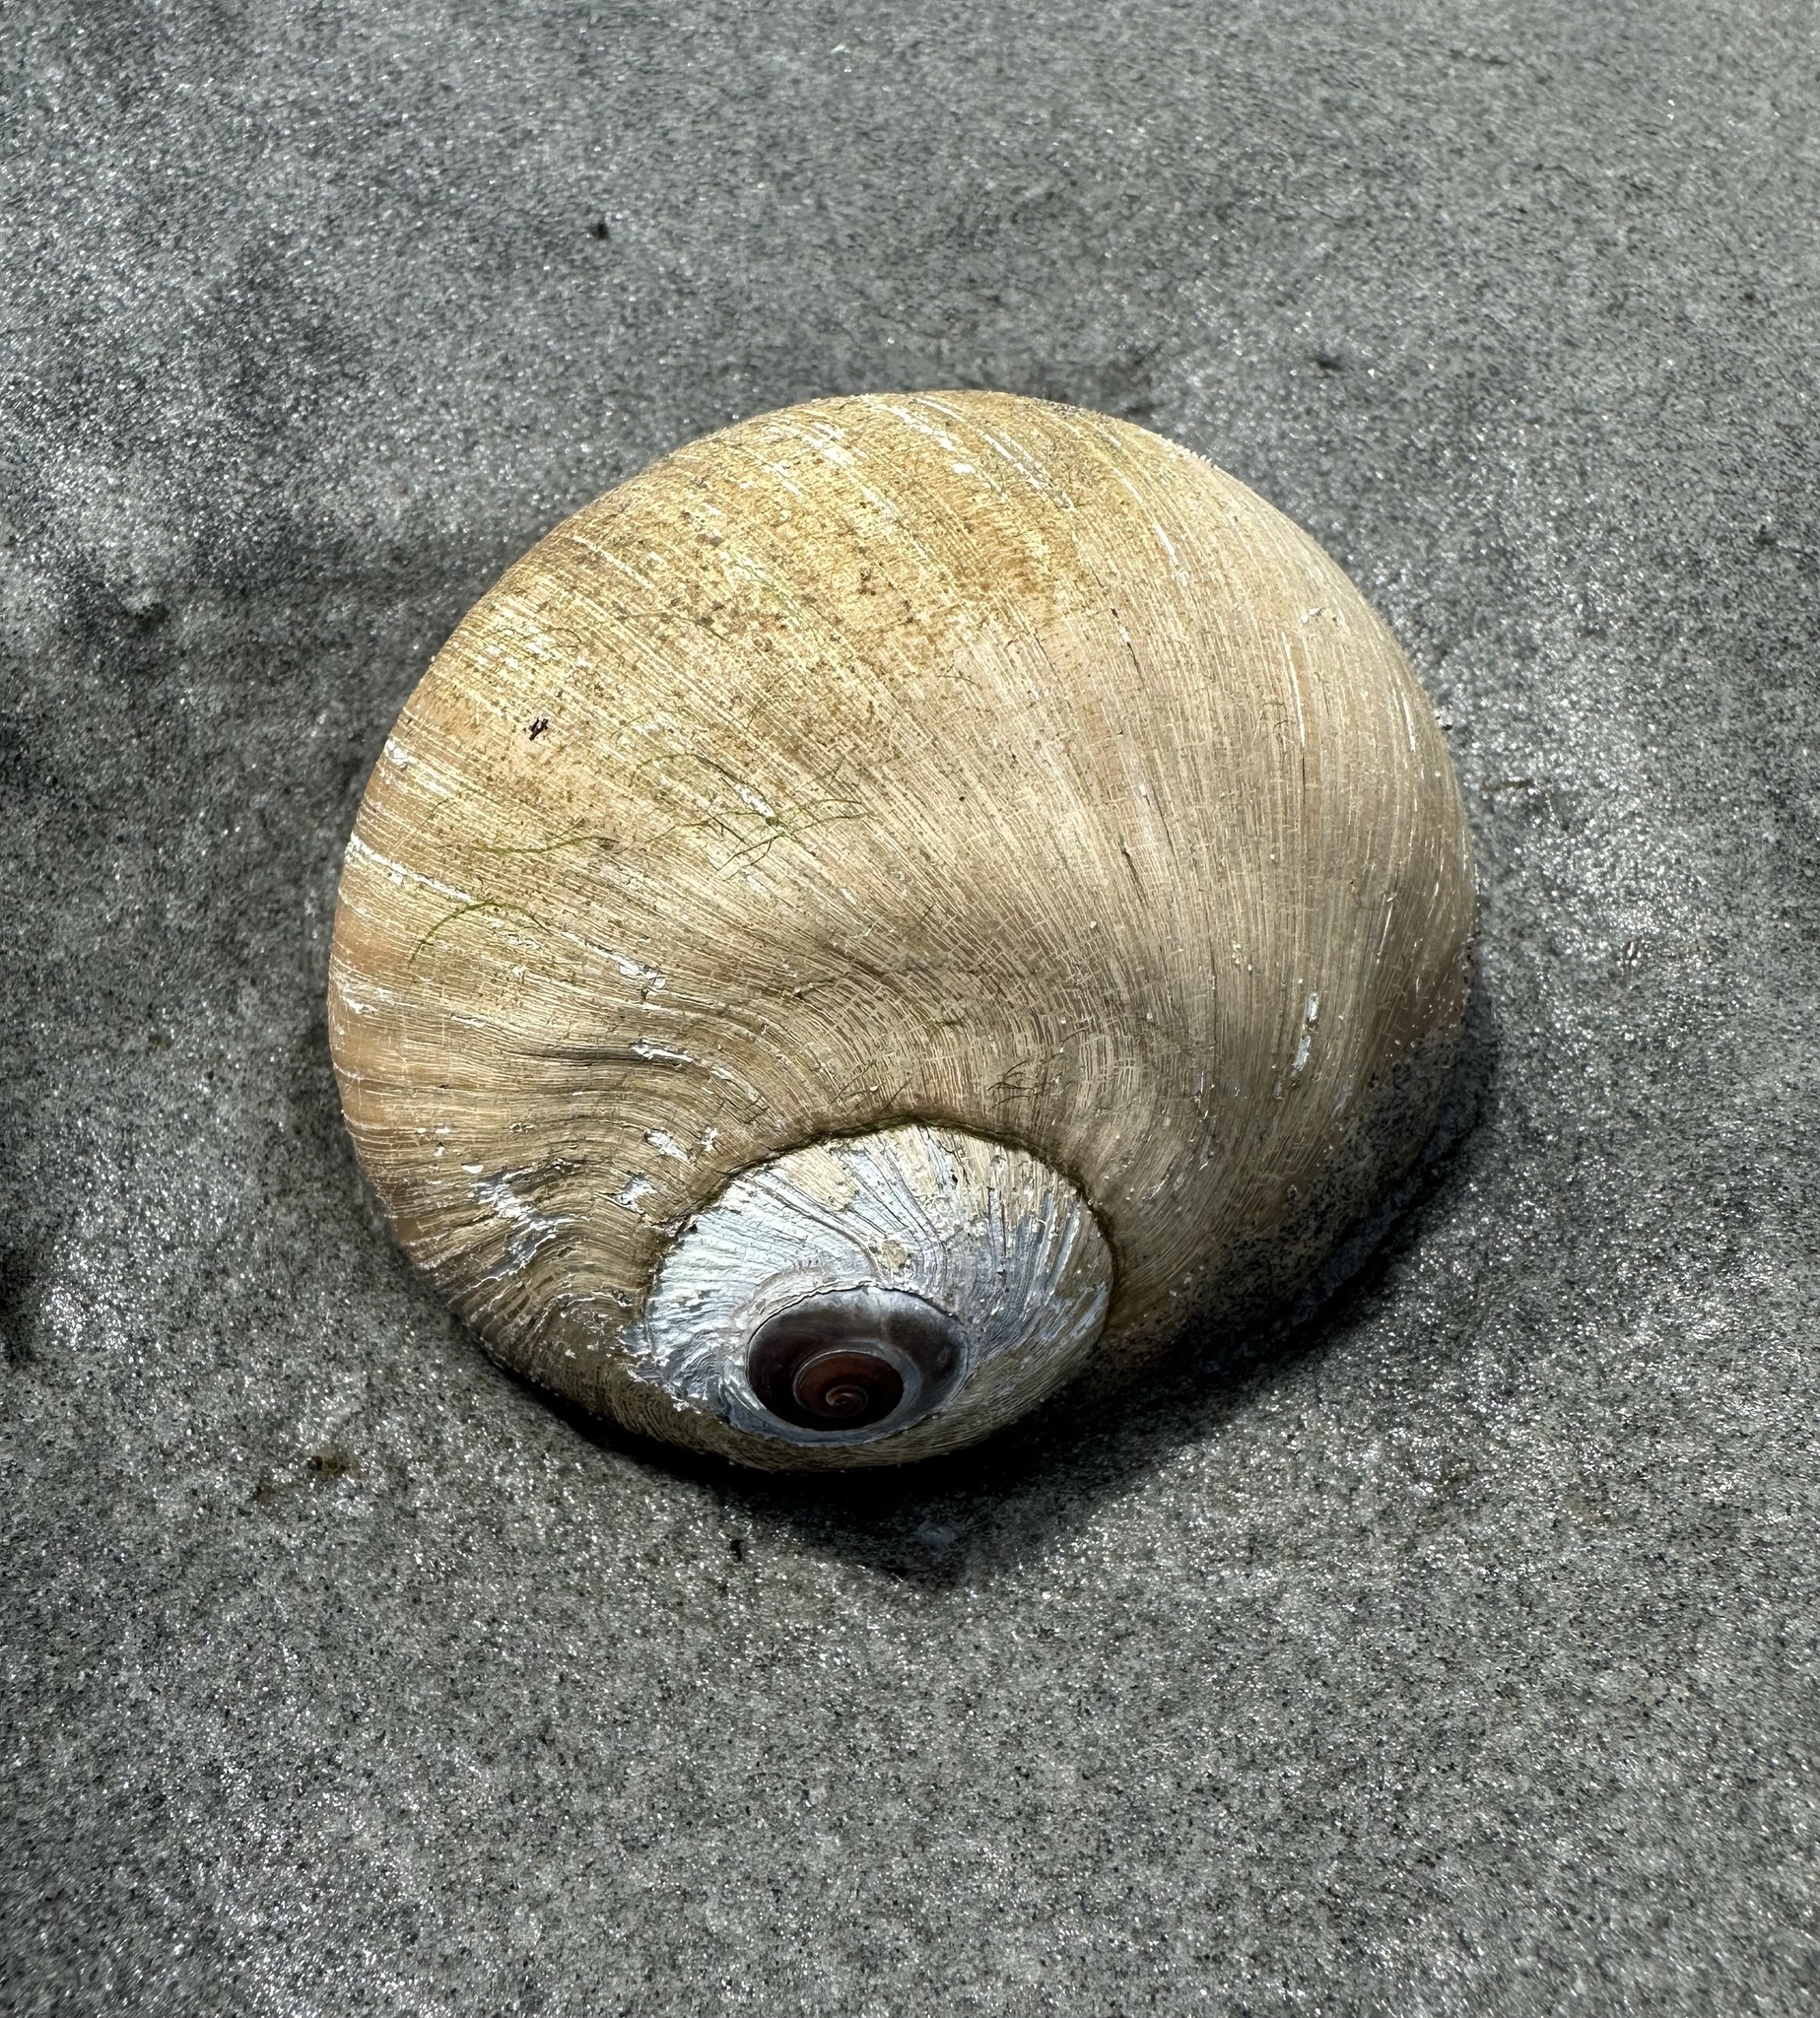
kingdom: Animalia
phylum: Mollusca
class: Gastropoda
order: Littorinimorpha
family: Naticidae
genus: Neverita
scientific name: Neverita lewisii
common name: Lewis' moonsnail
